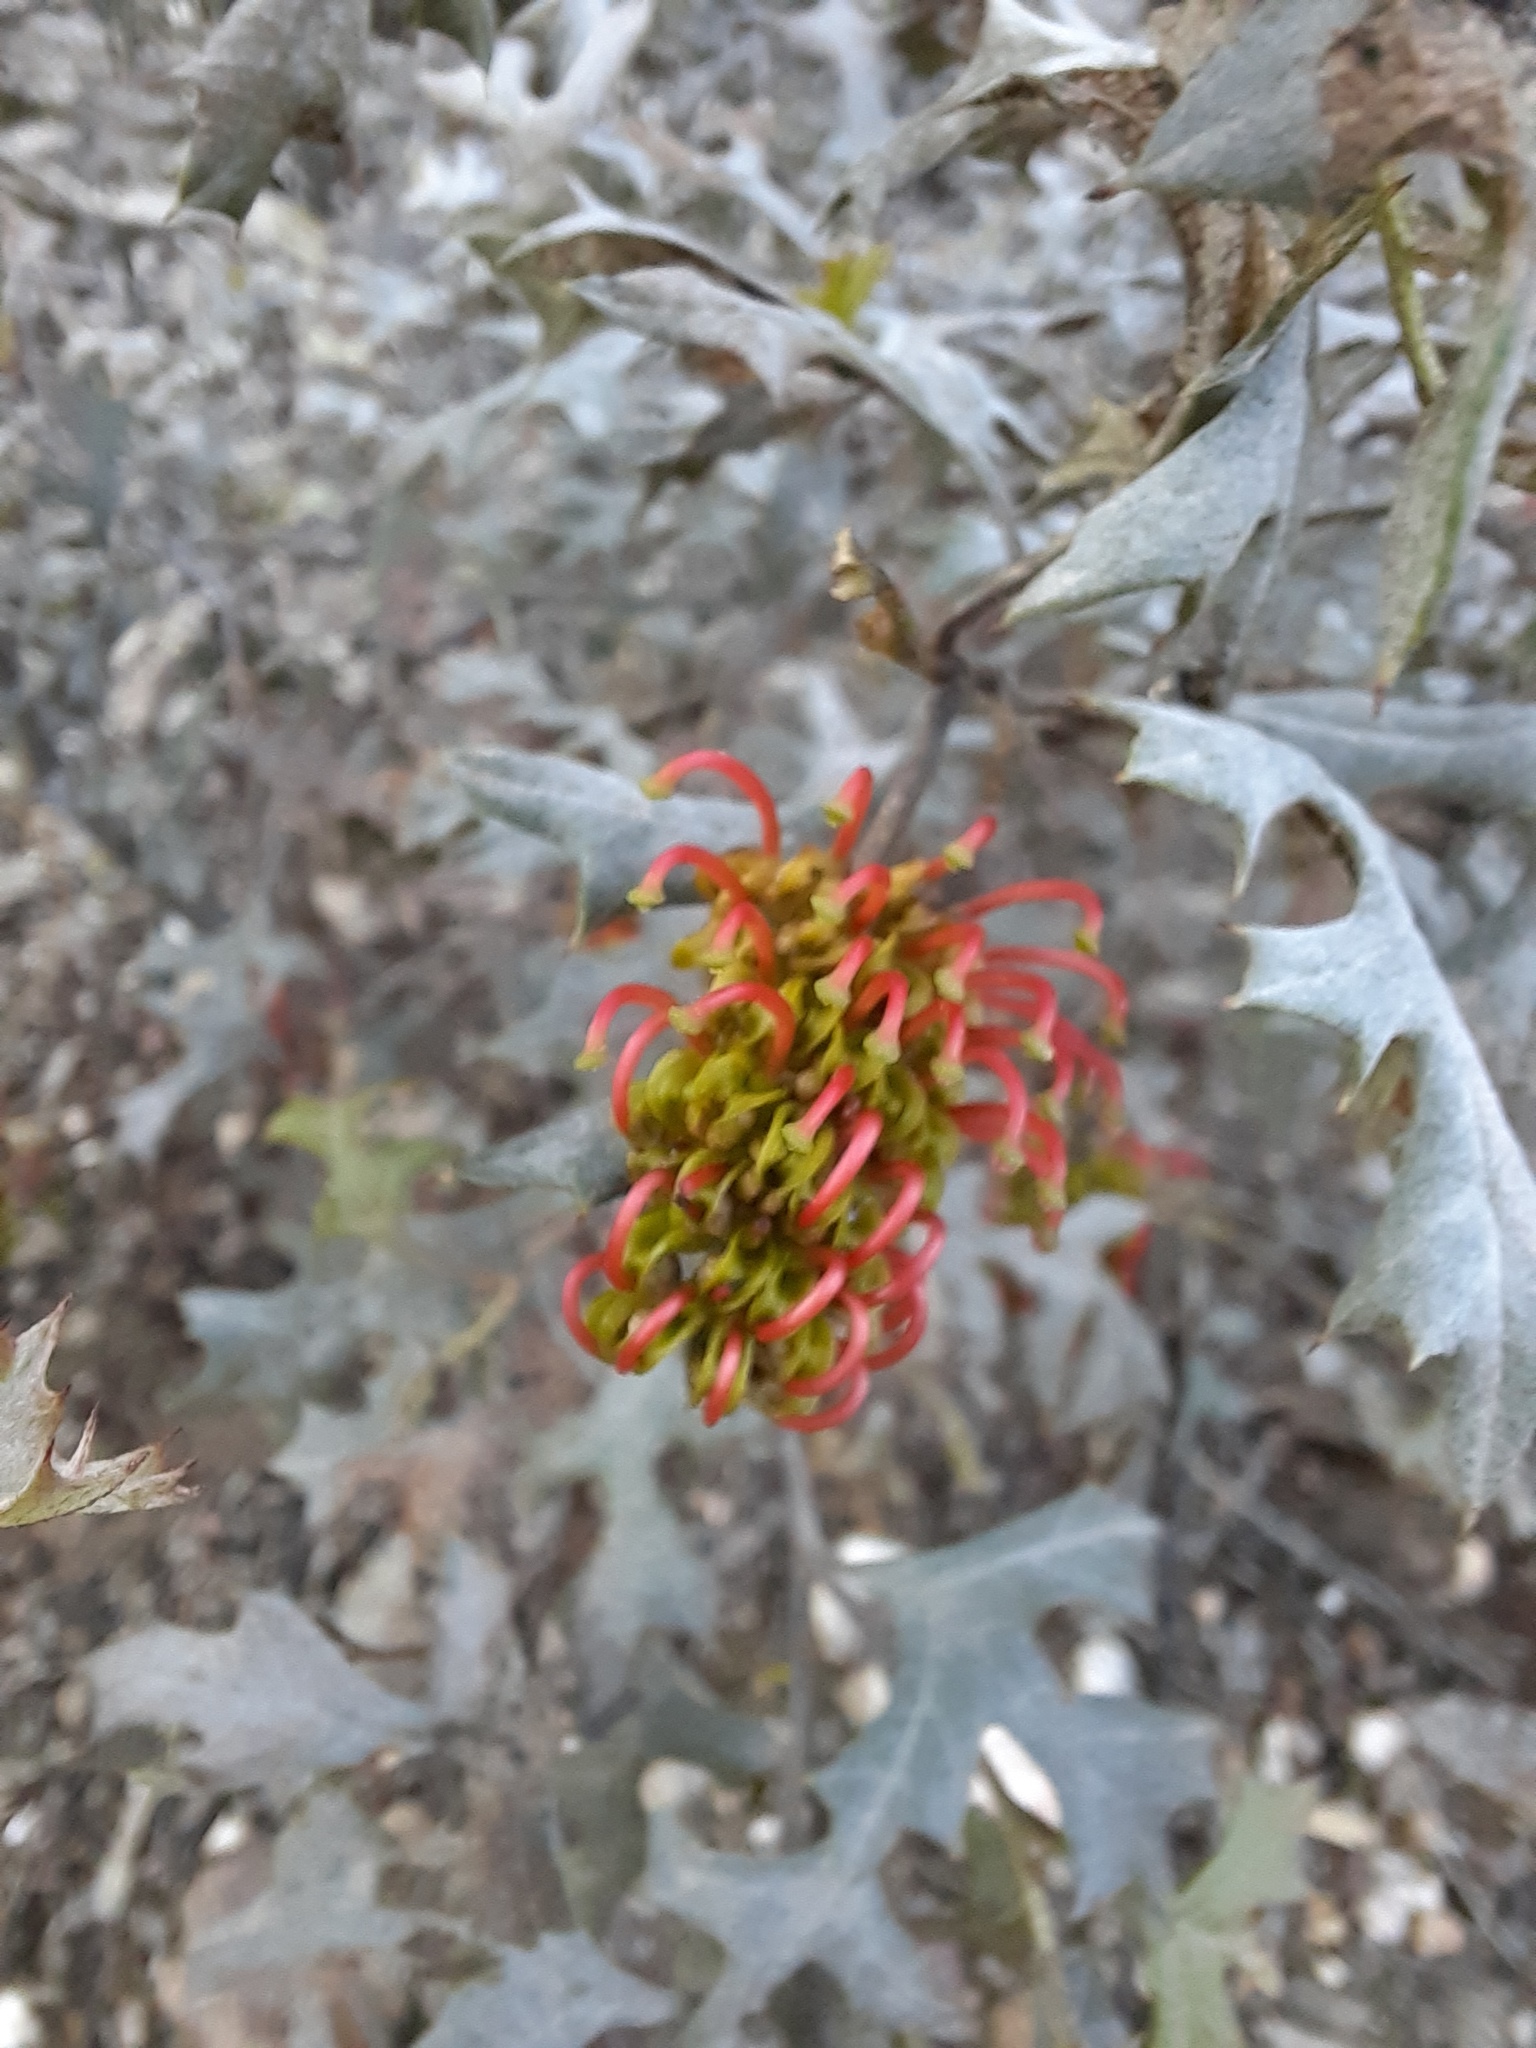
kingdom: Plantae
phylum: Tracheophyta
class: Magnoliopsida
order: Proteales
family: Proteaceae
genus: Grevillea
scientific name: Grevillea dryophylla
